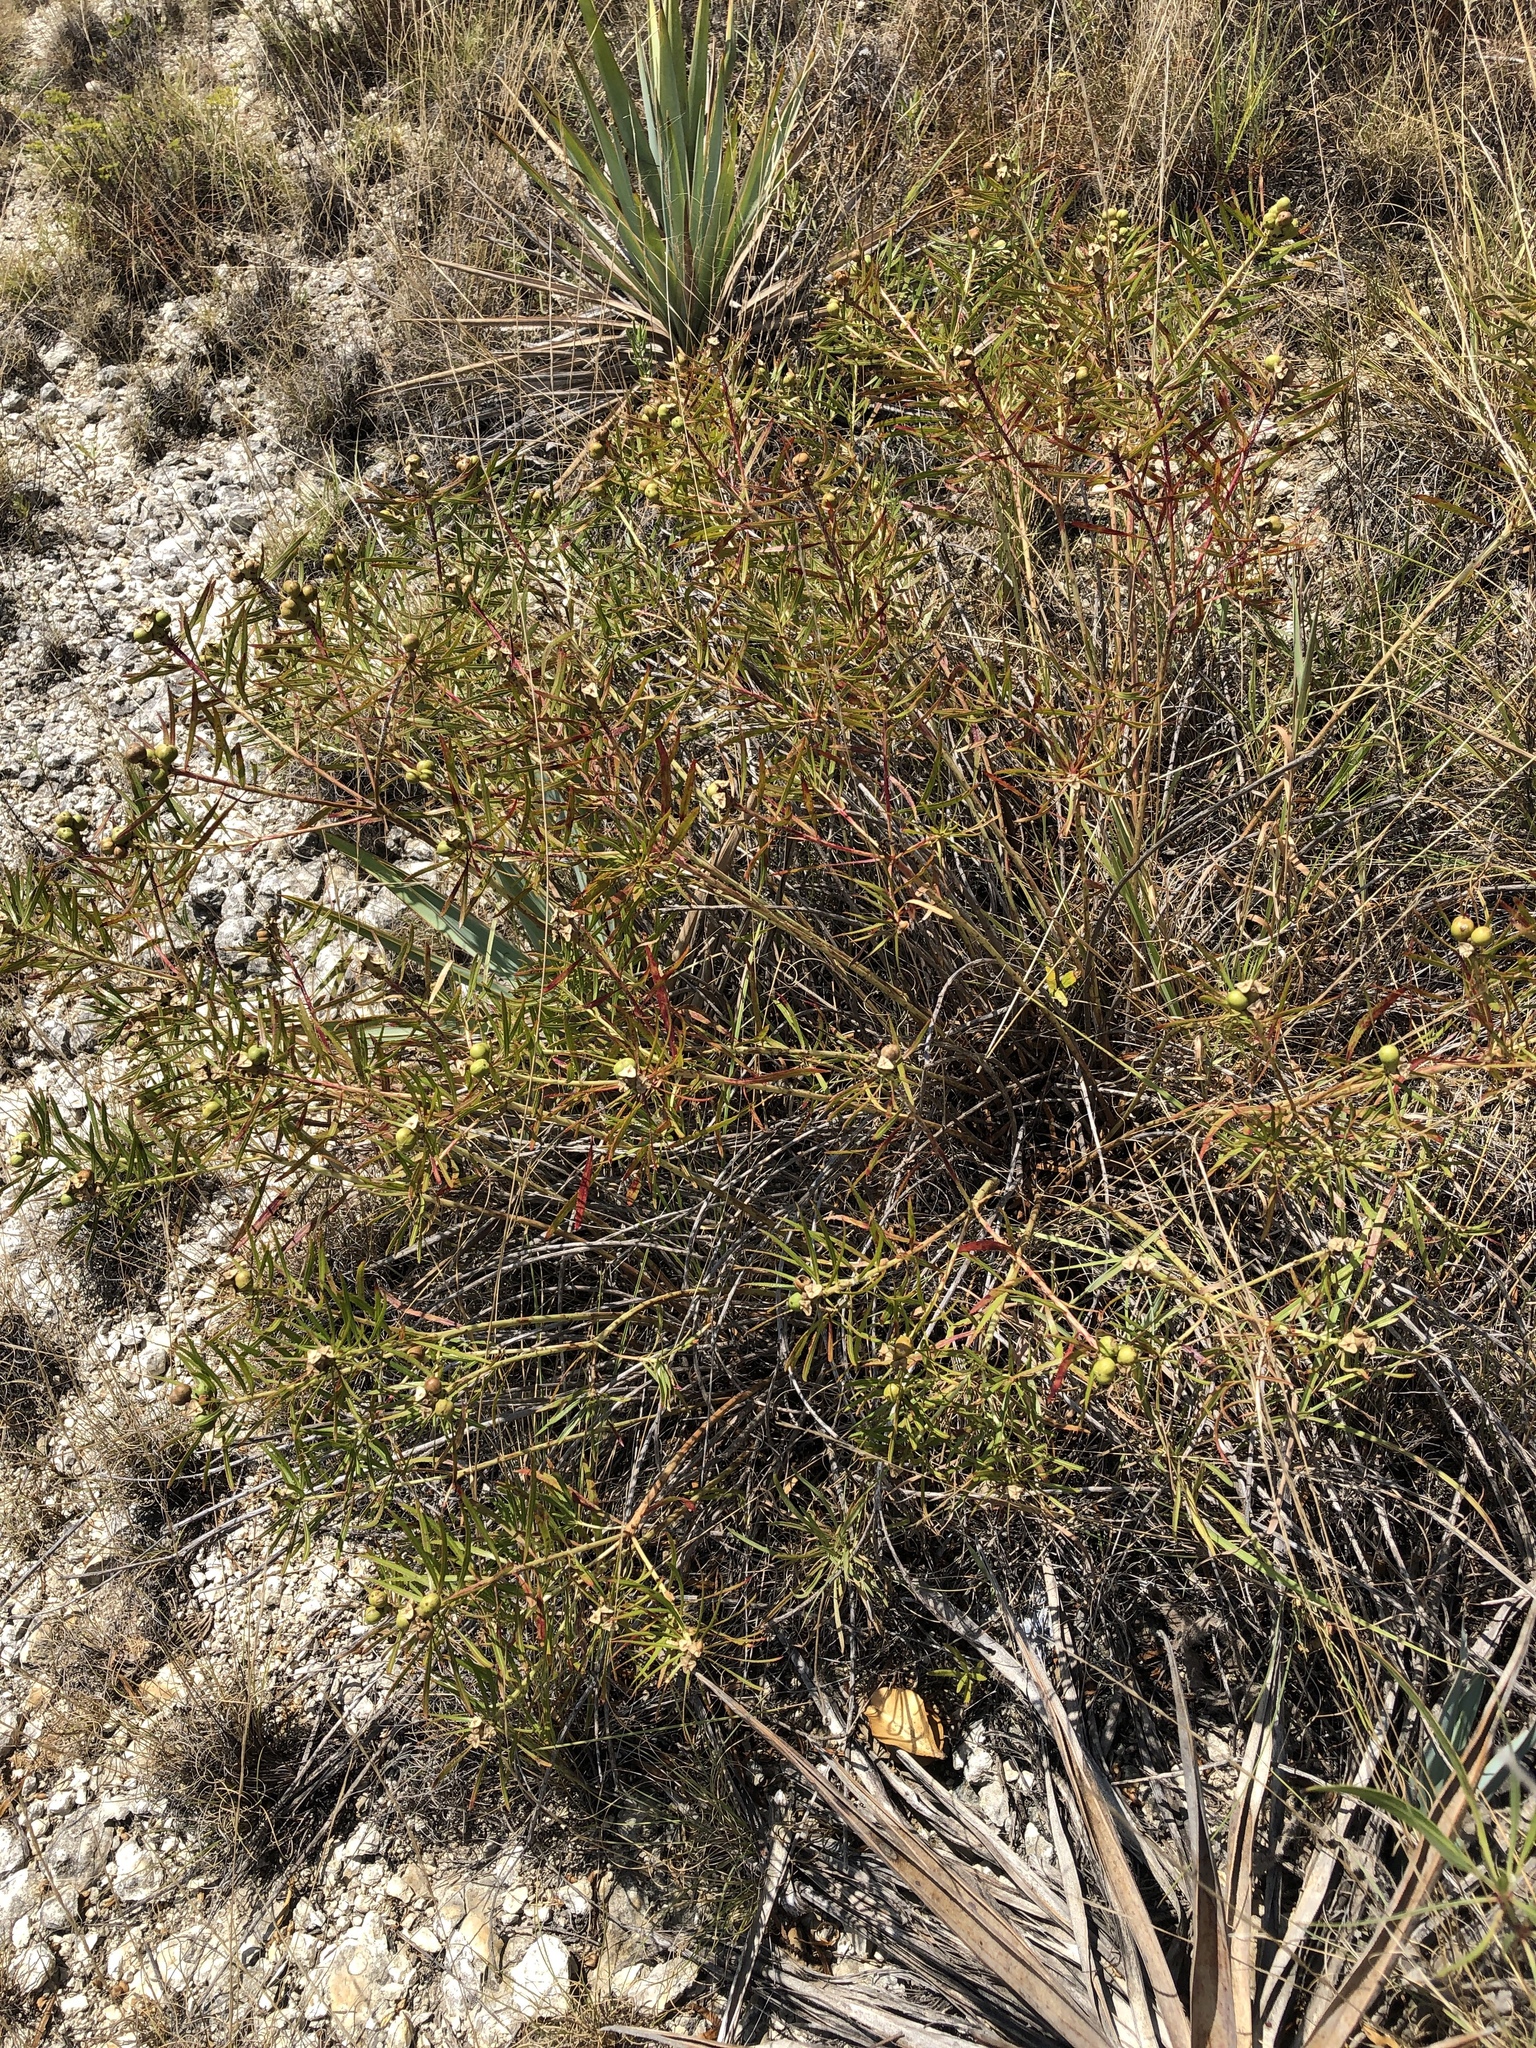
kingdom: Plantae
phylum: Tracheophyta
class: Magnoliopsida
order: Malpighiales
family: Euphorbiaceae
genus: Stillingia
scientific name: Stillingia texana
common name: Texas stillingia
